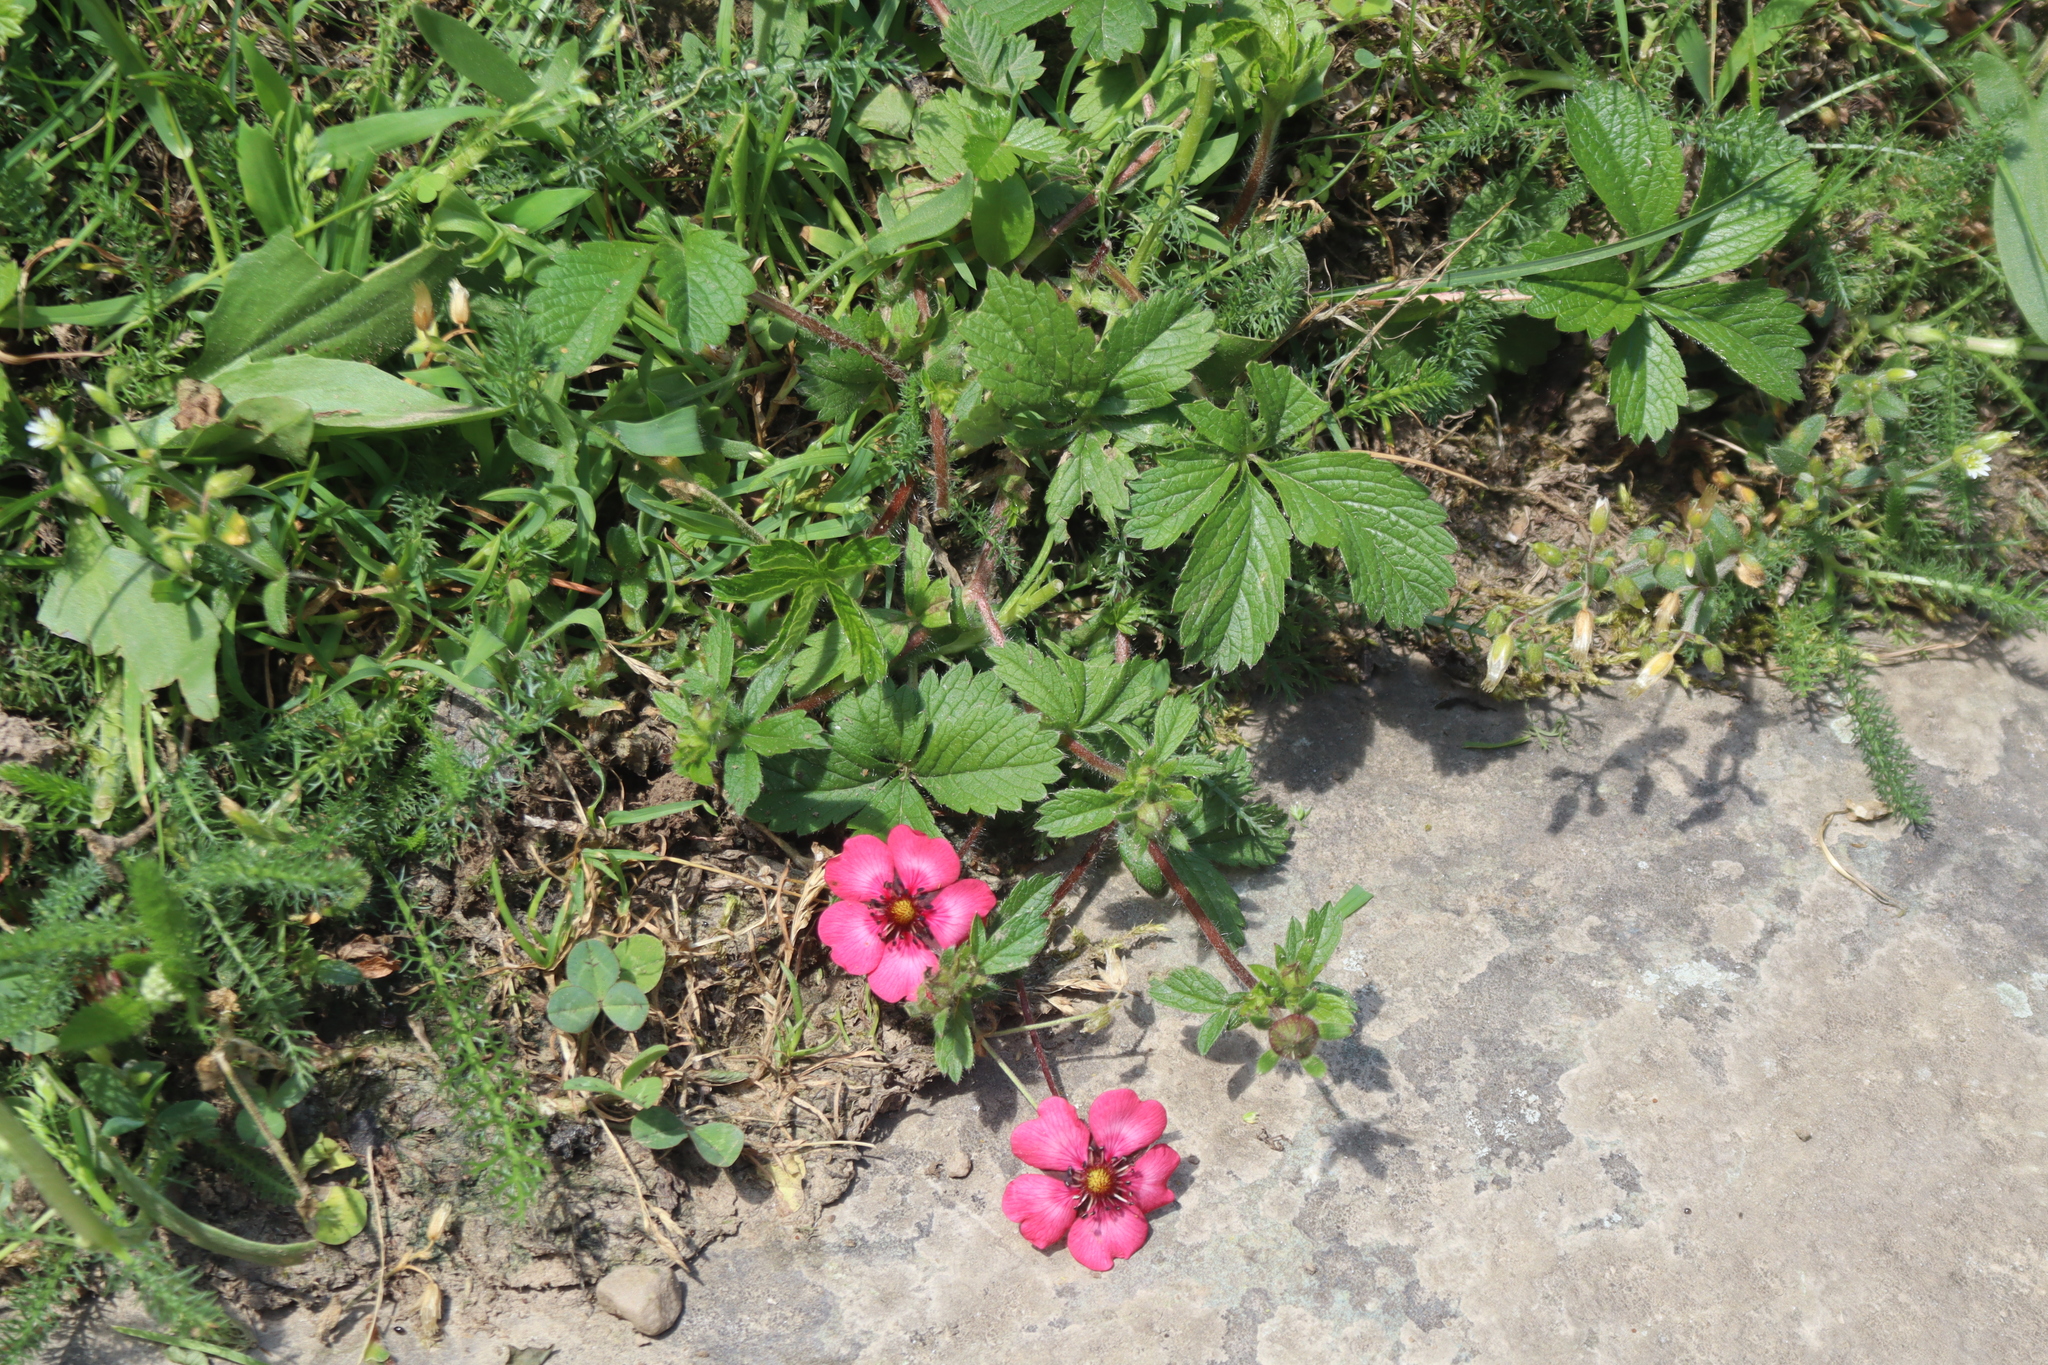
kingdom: Plantae
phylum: Tracheophyta
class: Magnoliopsida
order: Rosales
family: Rosaceae
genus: Potentilla
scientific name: Potentilla nepalensis
